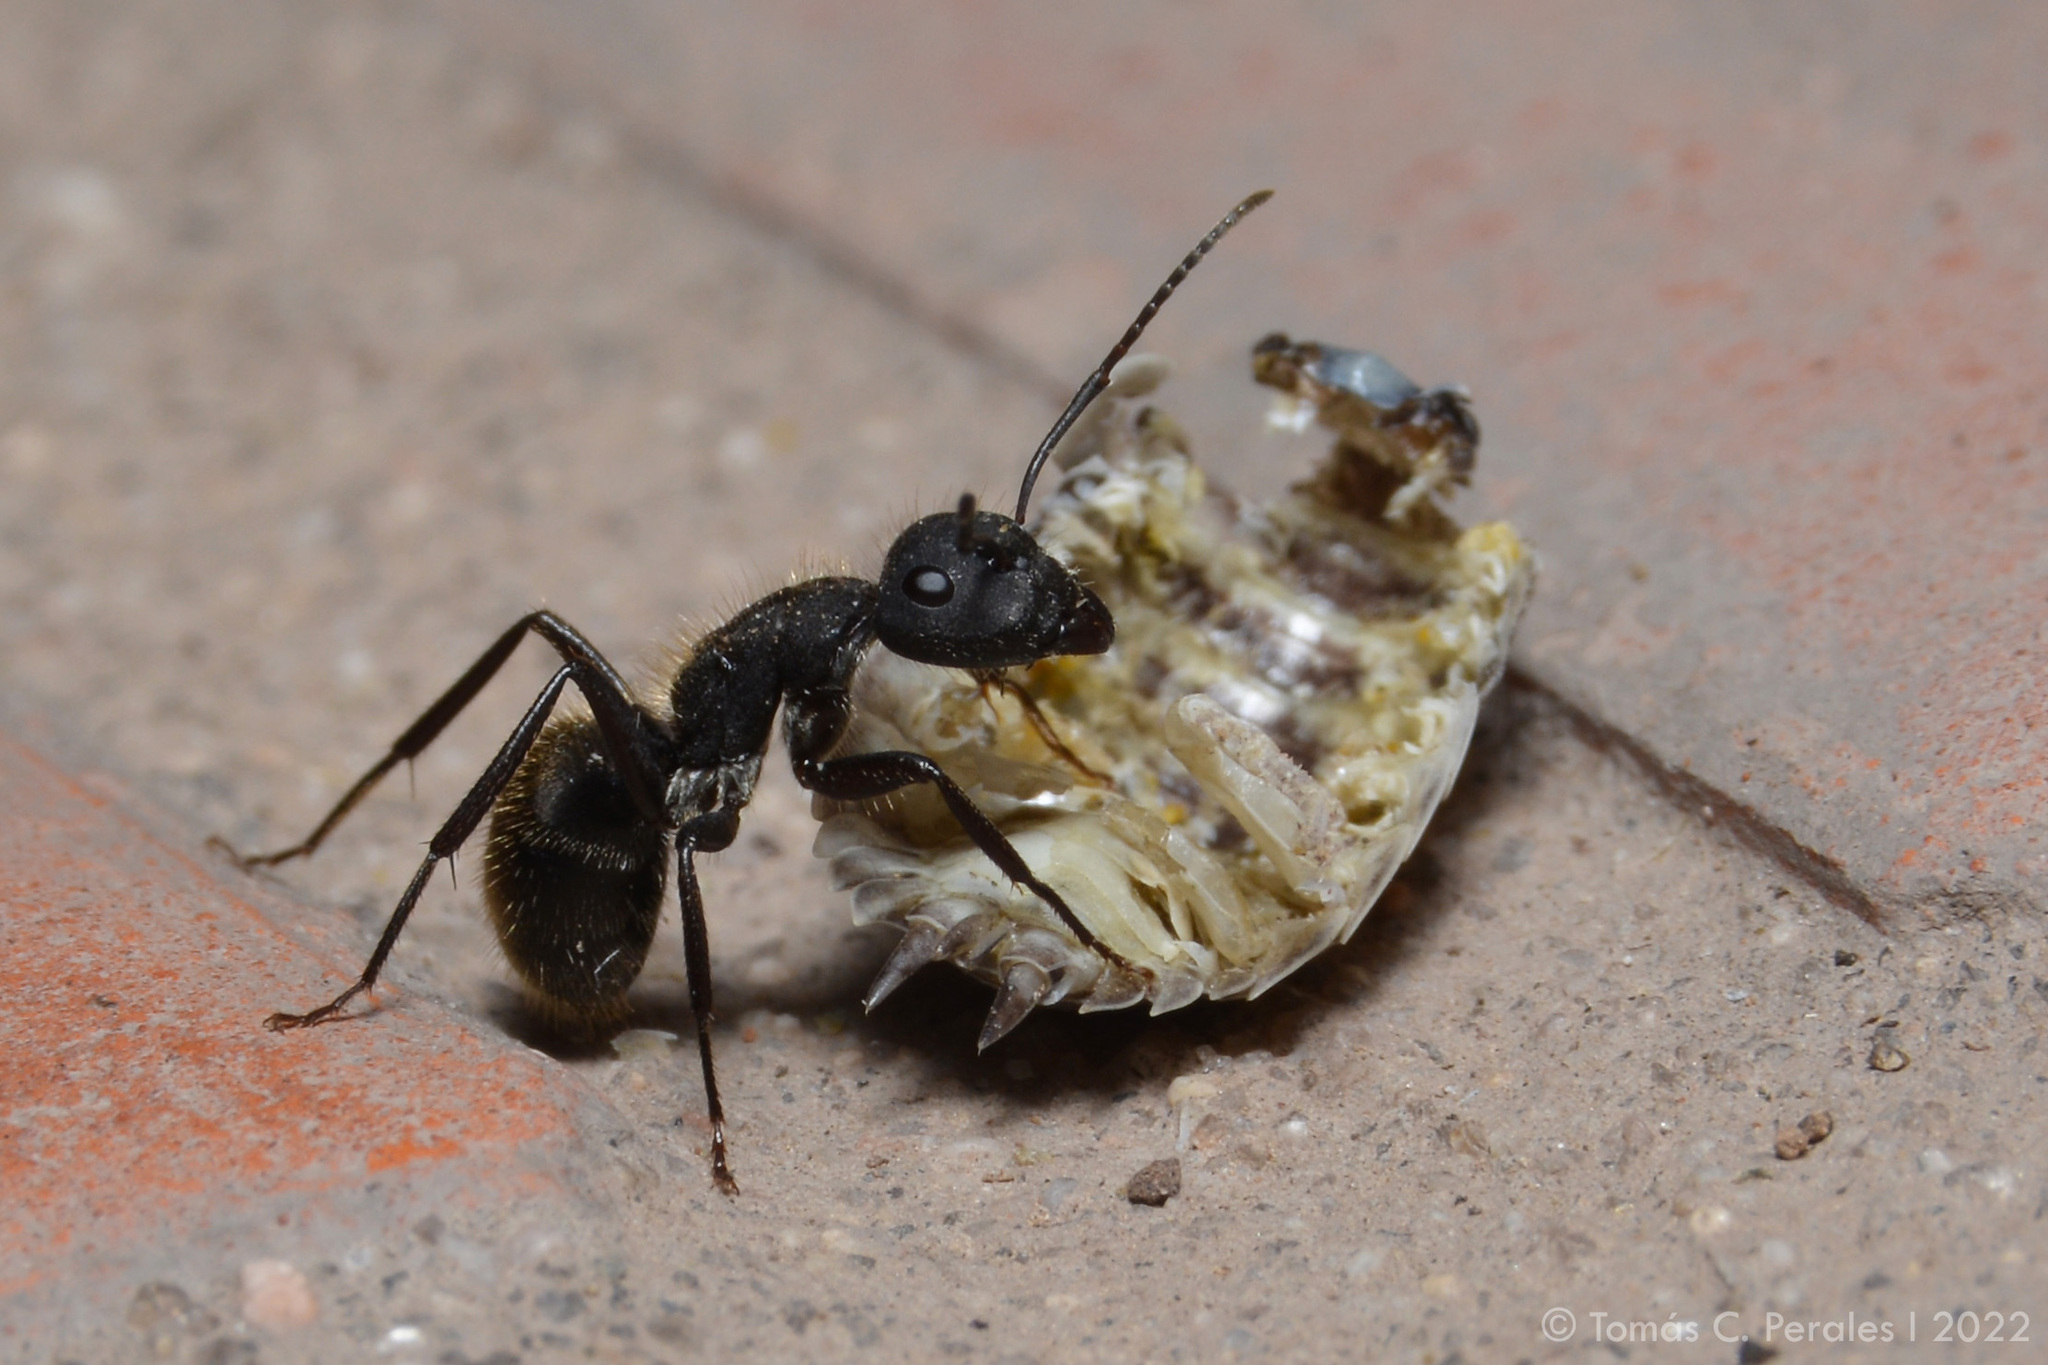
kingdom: Animalia
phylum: Arthropoda
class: Insecta
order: Hymenoptera
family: Formicidae
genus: Camponotus
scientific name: Camponotus mus
